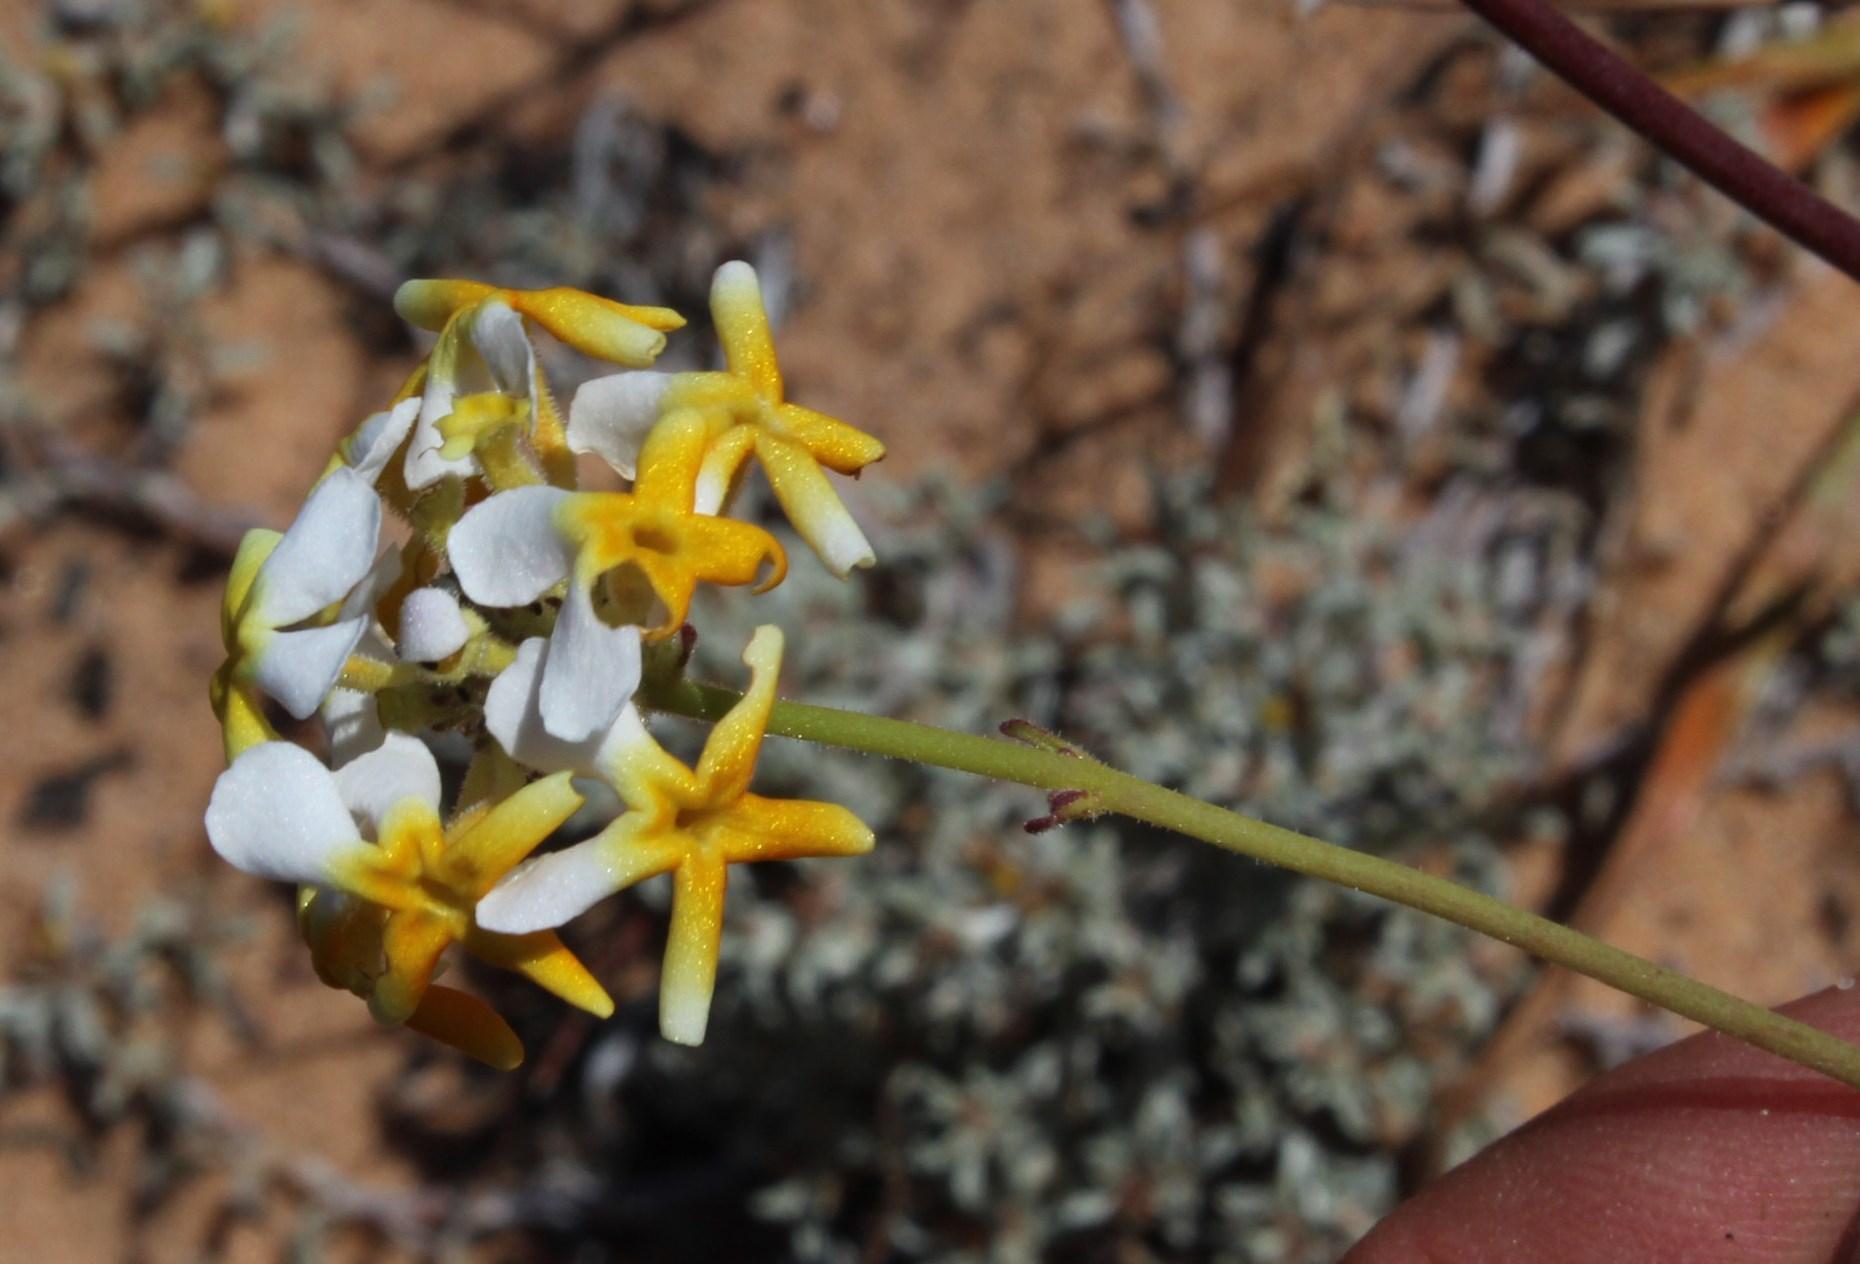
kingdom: Plantae
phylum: Tracheophyta
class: Magnoliopsida
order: Lamiales
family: Scrophulariaceae
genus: Manulea
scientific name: Manulea altissima
